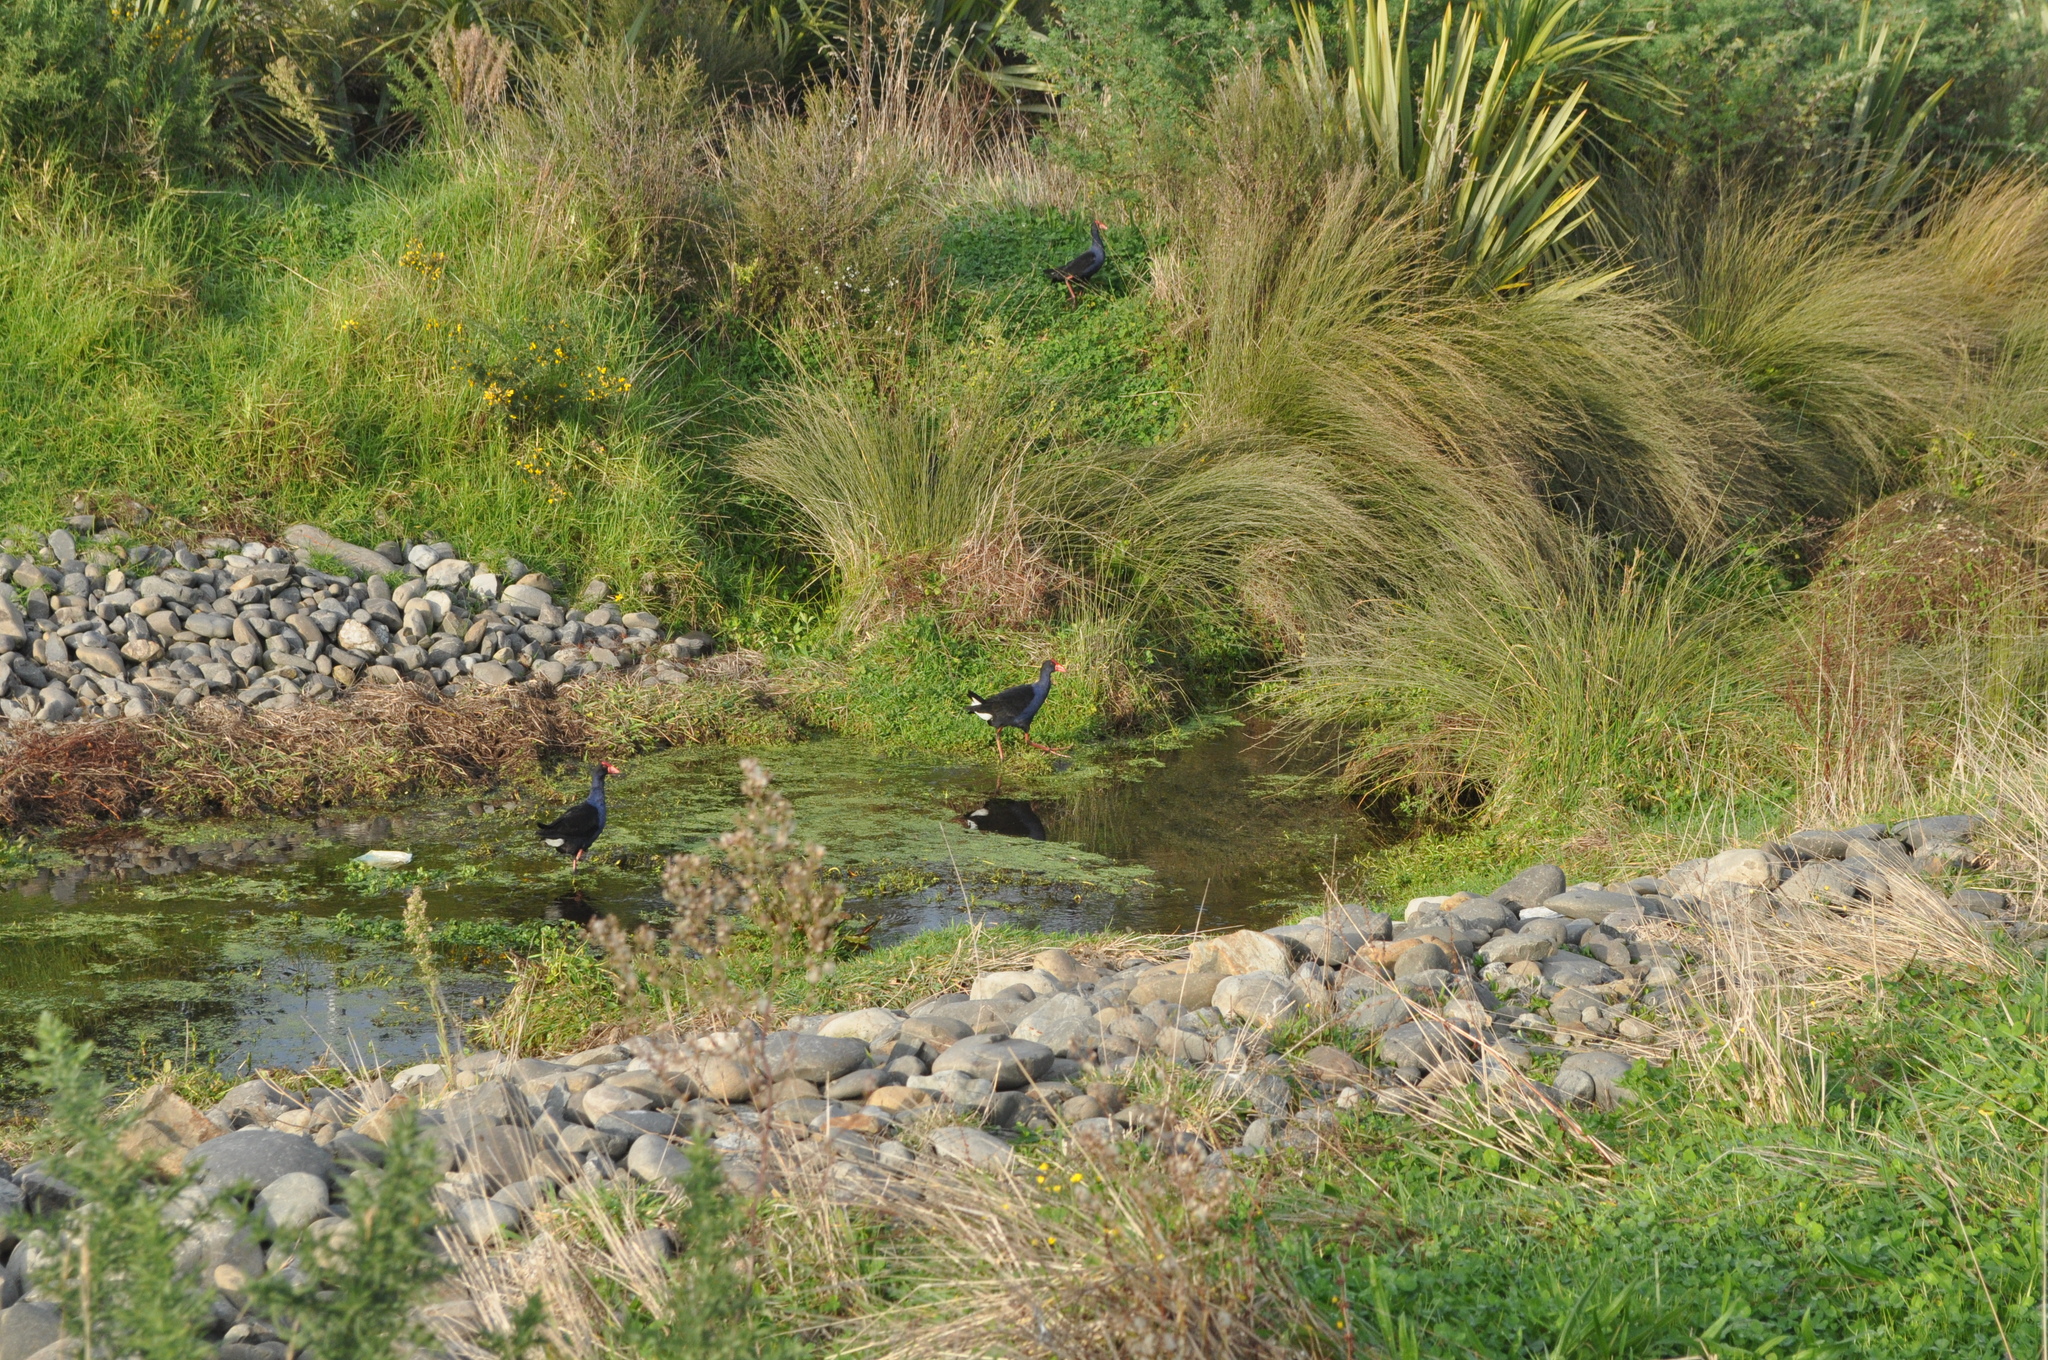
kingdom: Animalia
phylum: Chordata
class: Aves
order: Gruiformes
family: Rallidae
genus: Porphyrio
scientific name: Porphyrio melanotus
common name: Australasian swamphen
